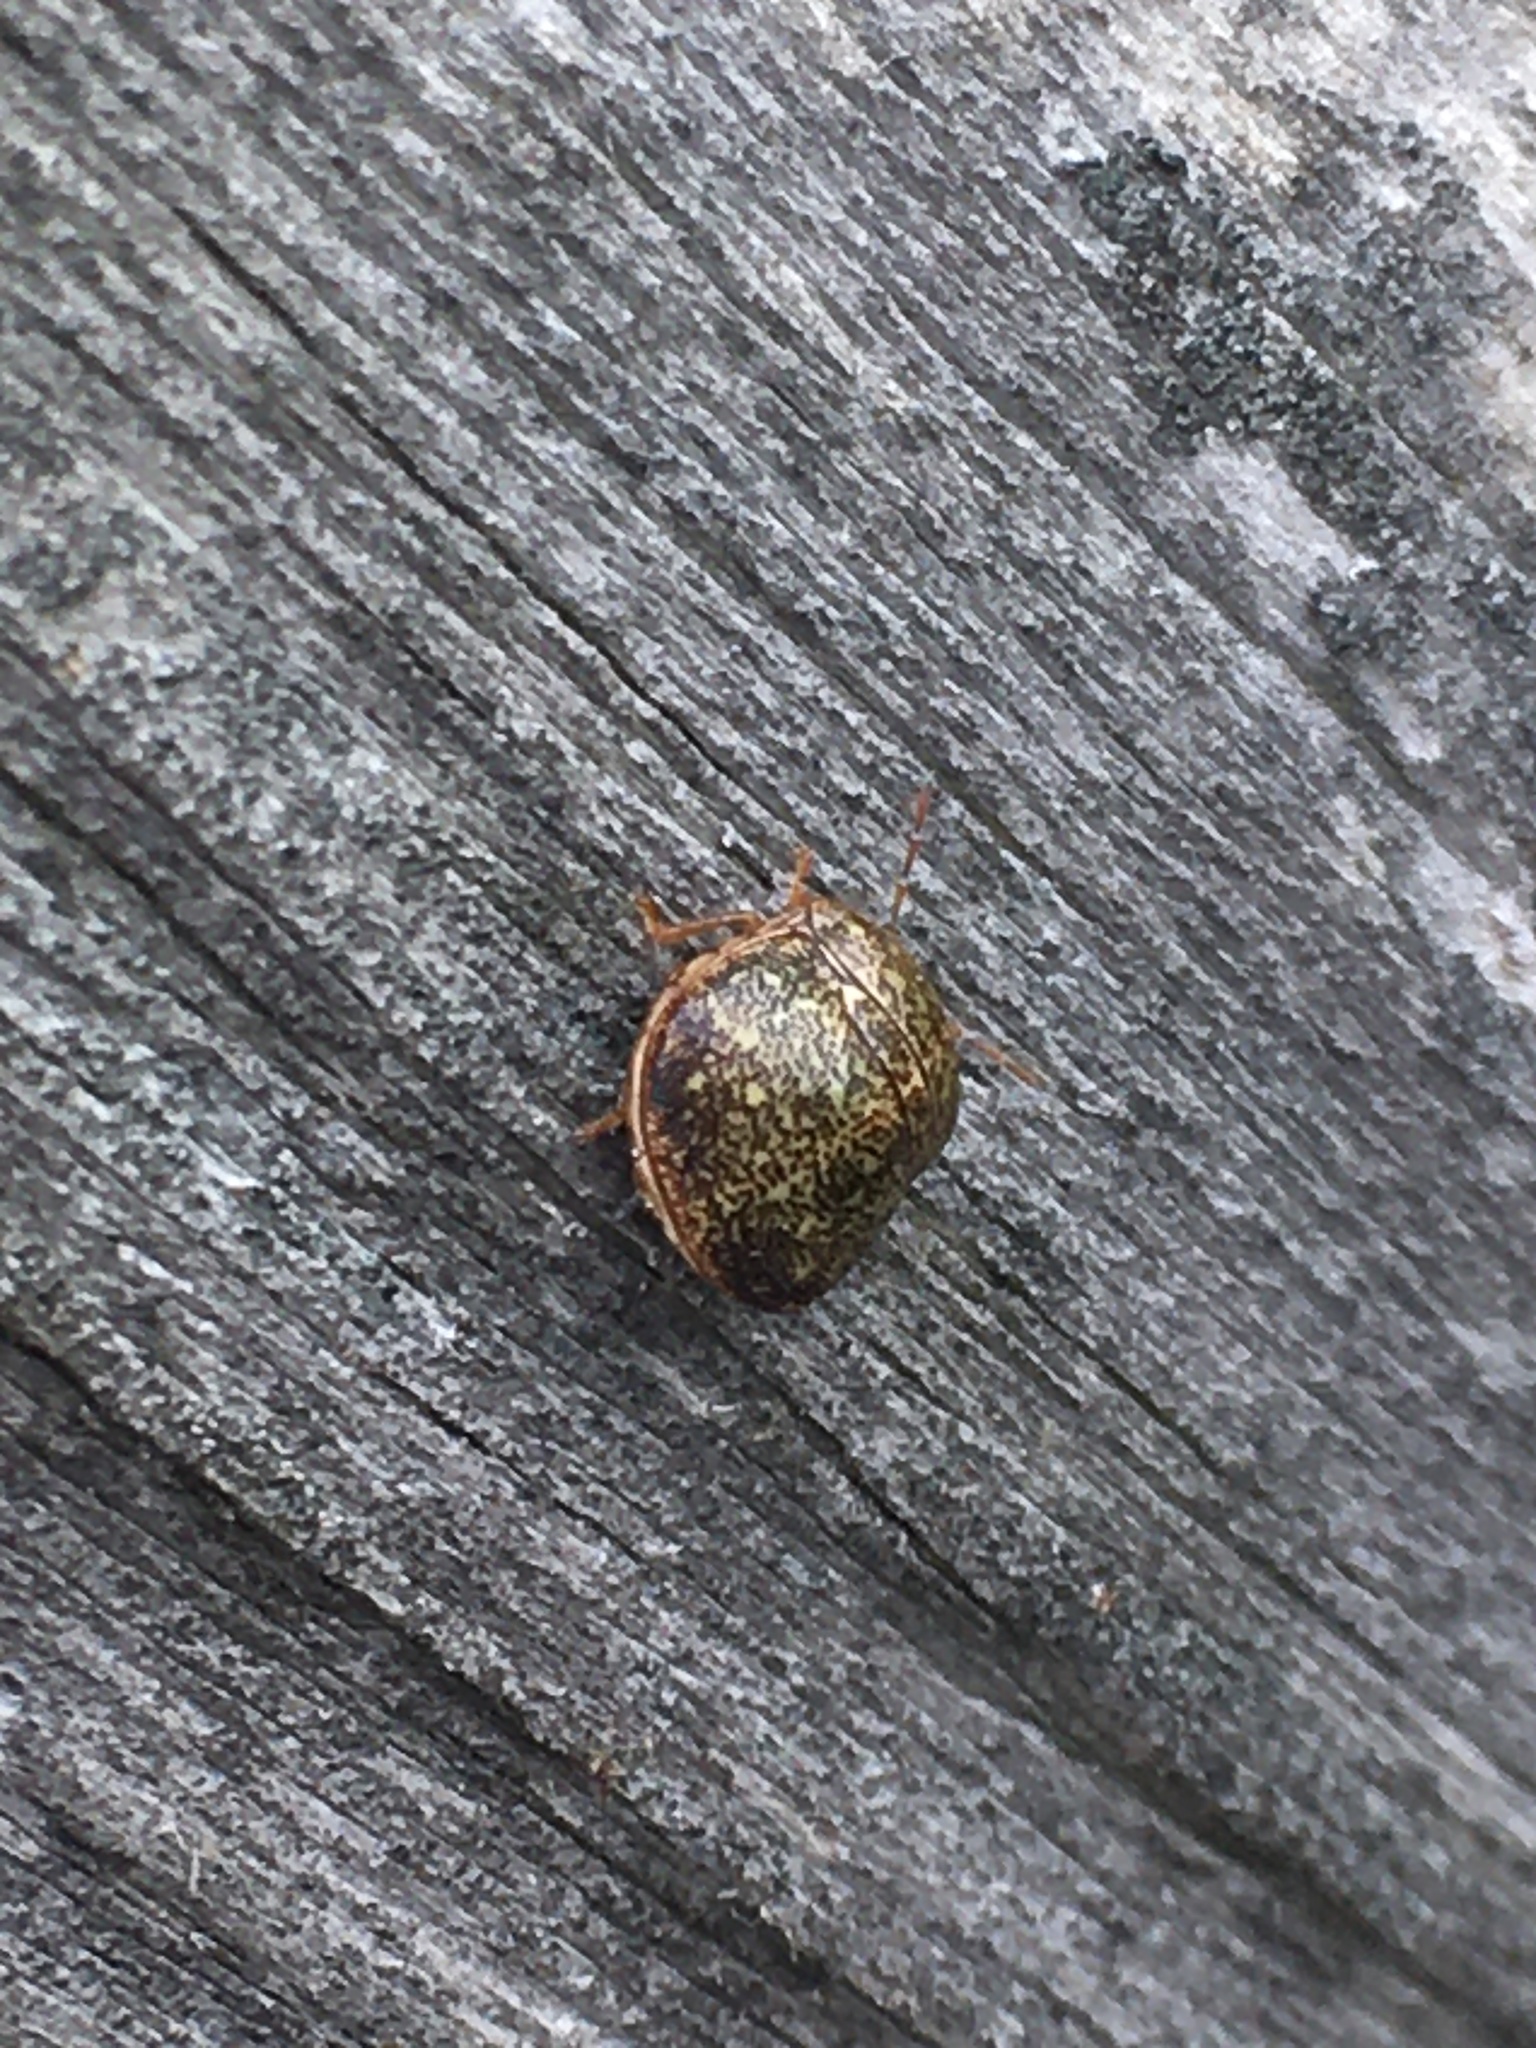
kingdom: Animalia
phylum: Arthropoda
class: Insecta
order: Hemiptera
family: Plataspidae
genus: Megacopta
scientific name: Megacopta cribraria
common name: Bean plataspid
